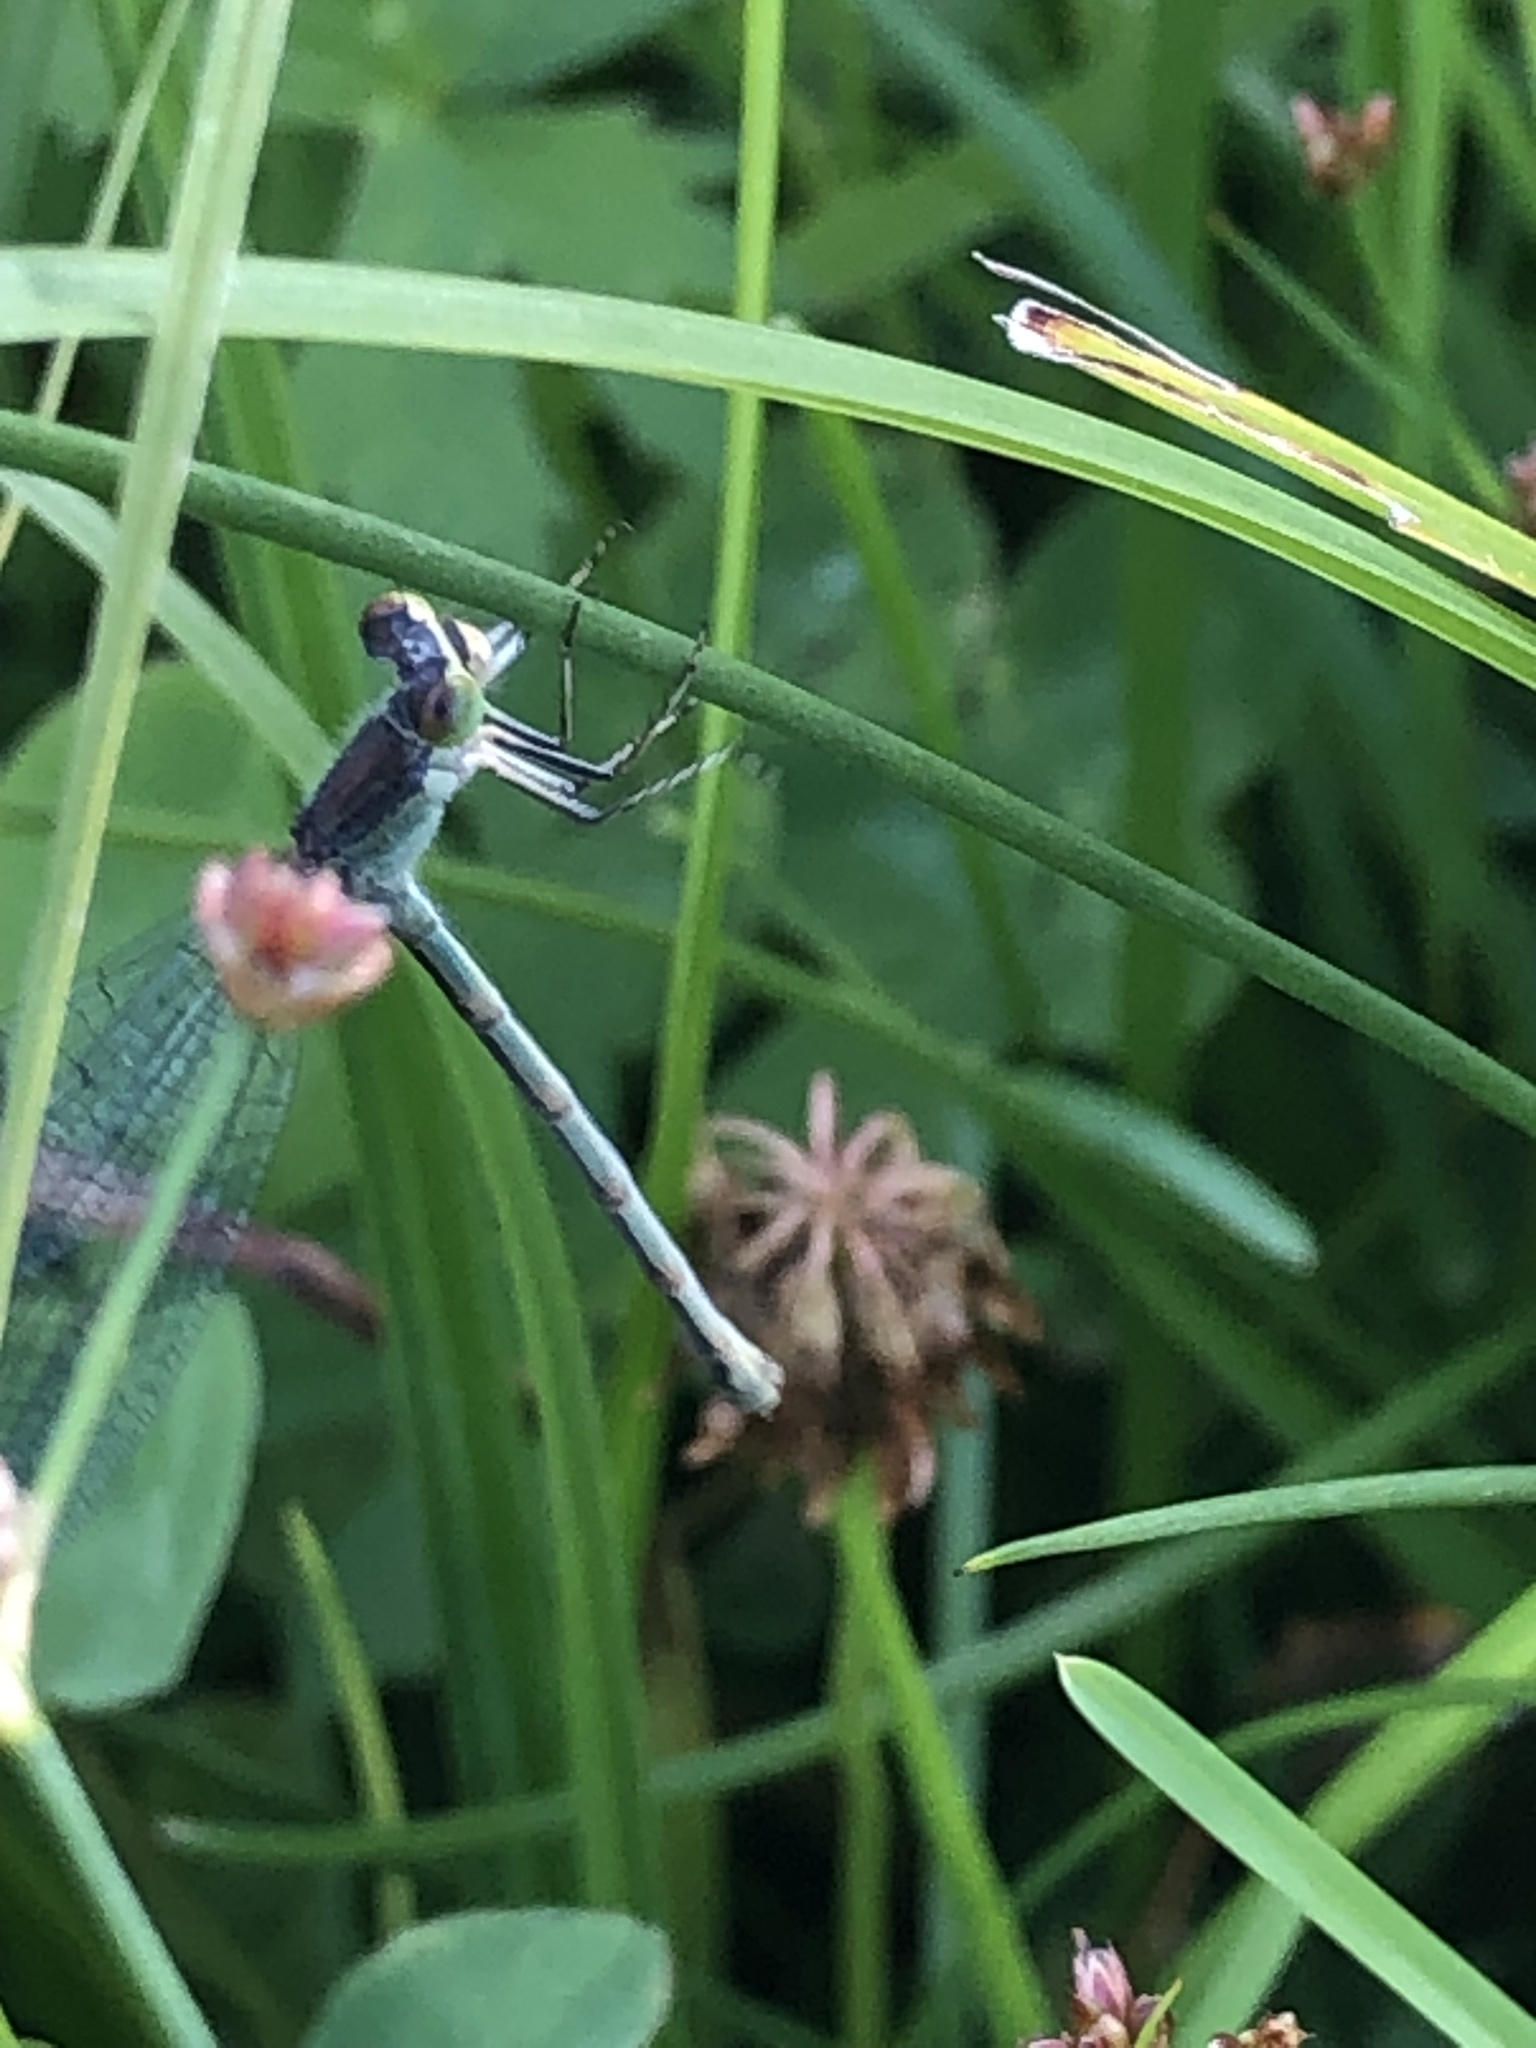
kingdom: Animalia
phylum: Arthropoda
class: Insecta
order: Odonata
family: Lestidae
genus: Lestes
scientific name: Lestes sponsa
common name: Common spreadwing
